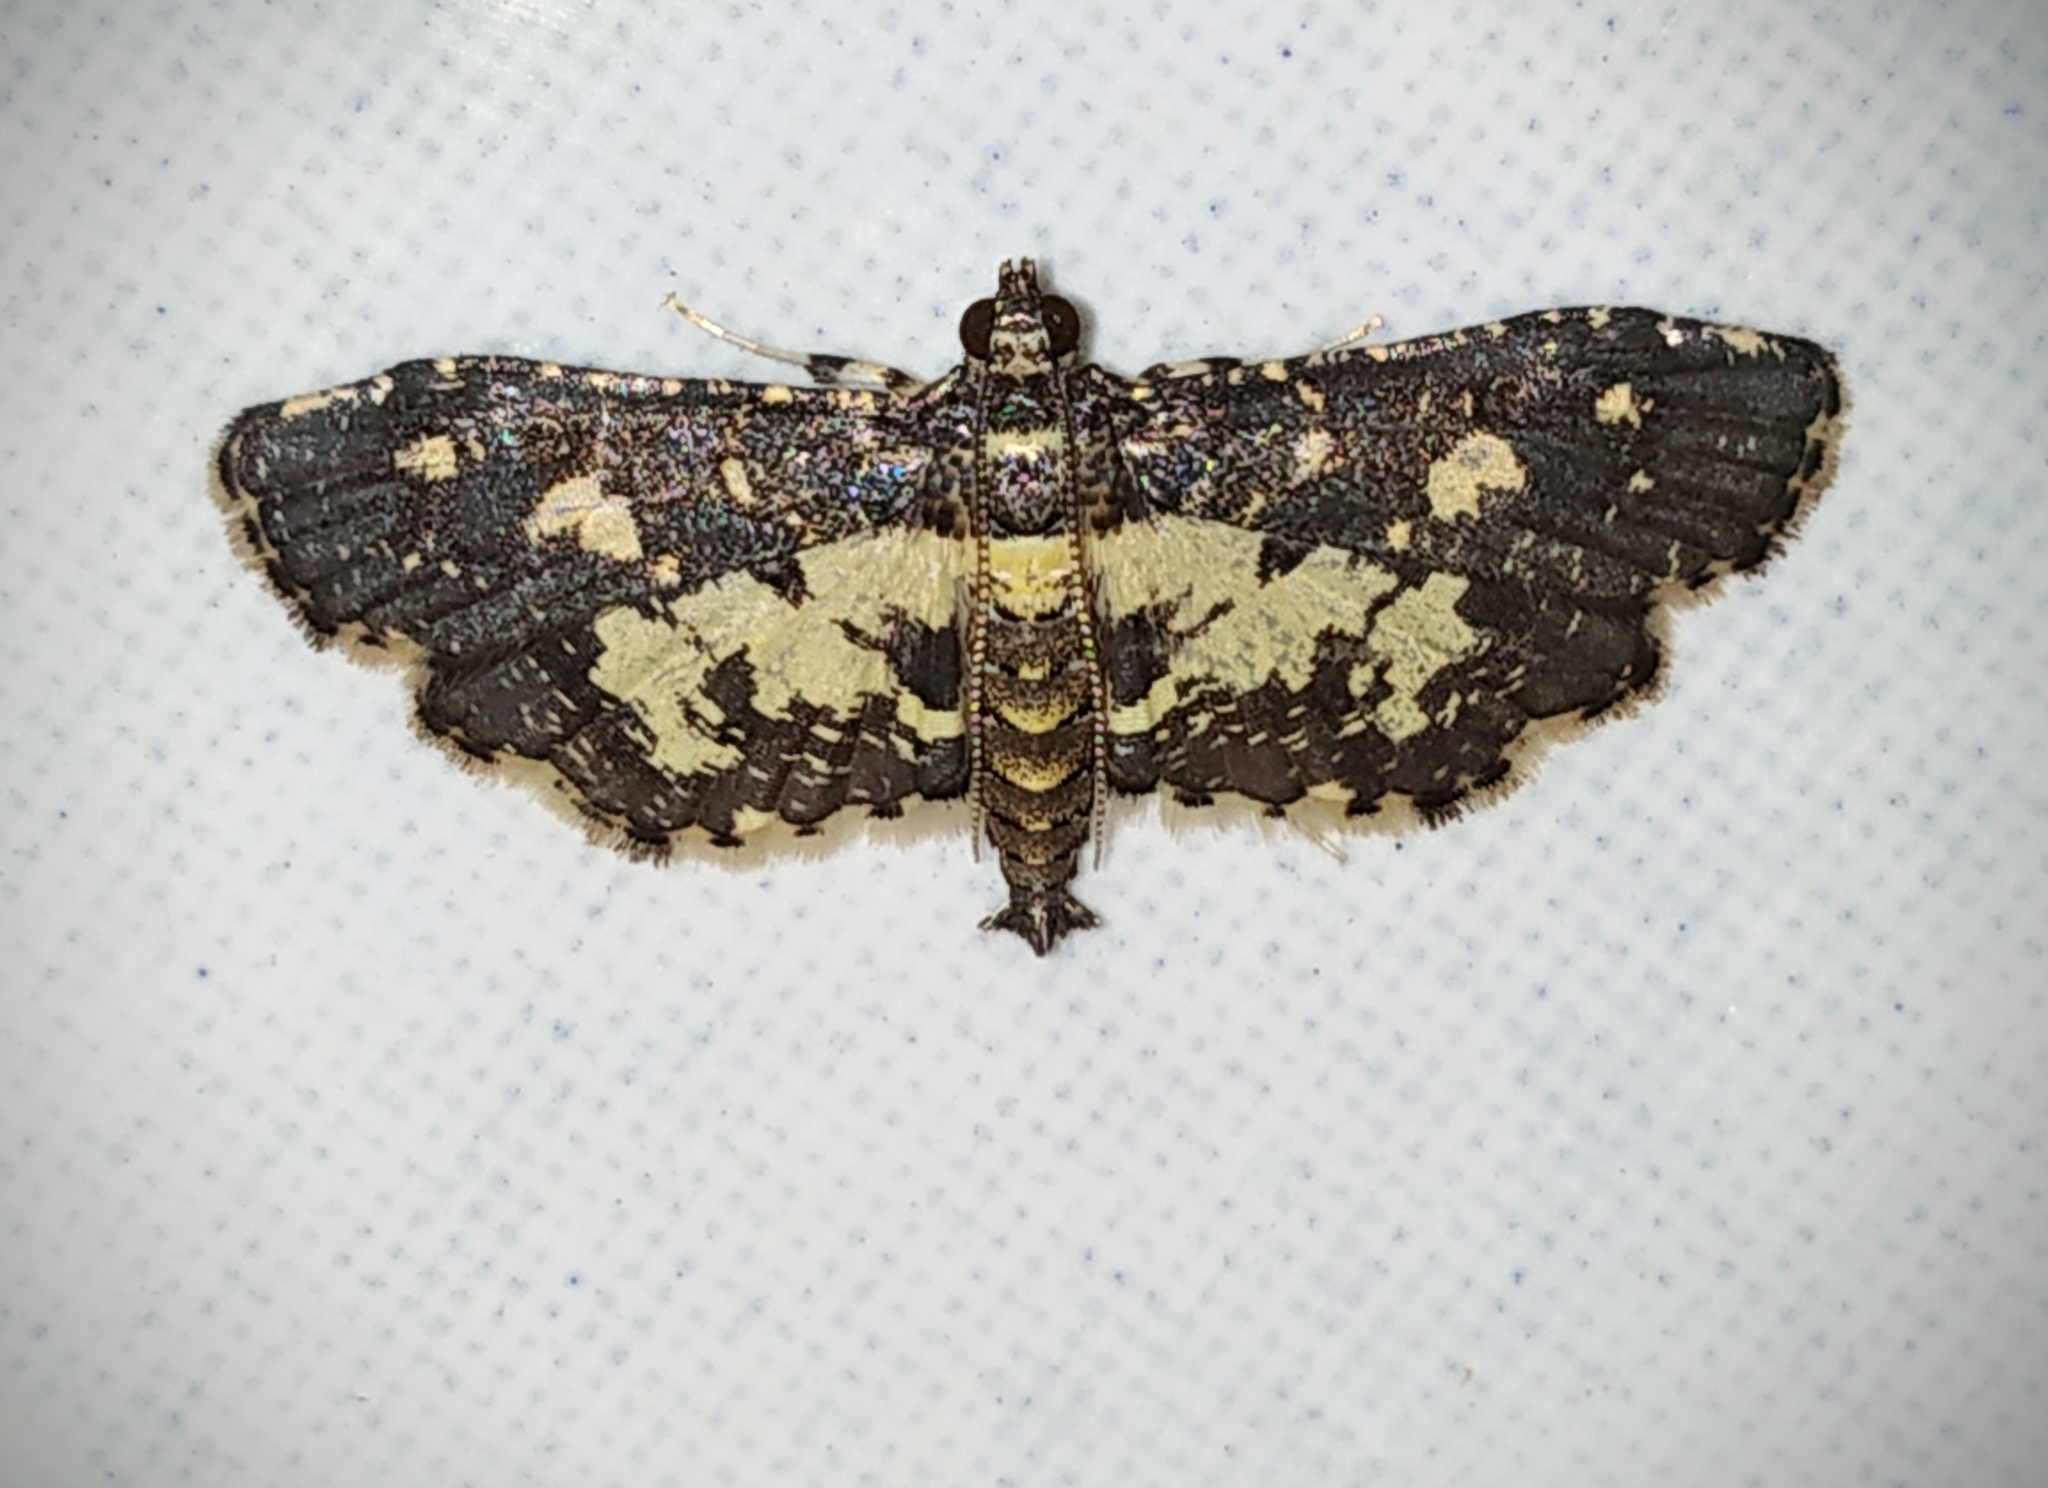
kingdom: Animalia
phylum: Arthropoda
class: Insecta
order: Lepidoptera
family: Crambidae
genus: Eurrhyparodes
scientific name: Eurrhyparodes bracteolalis
